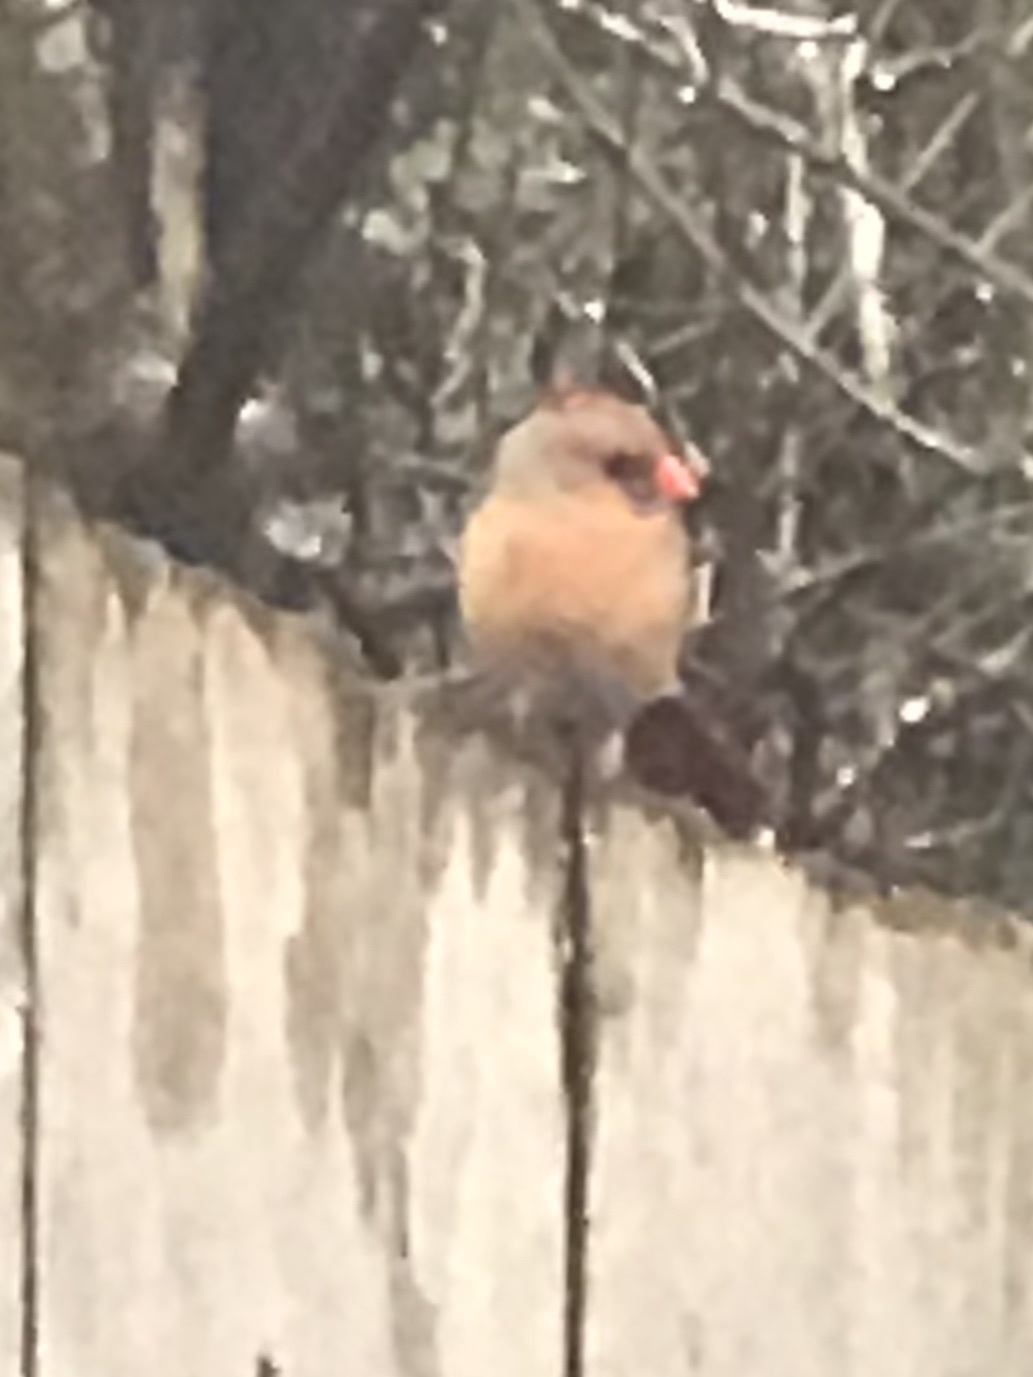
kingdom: Animalia
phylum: Chordata
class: Aves
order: Passeriformes
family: Cardinalidae
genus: Cardinalis
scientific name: Cardinalis cardinalis
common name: Northern cardinal
